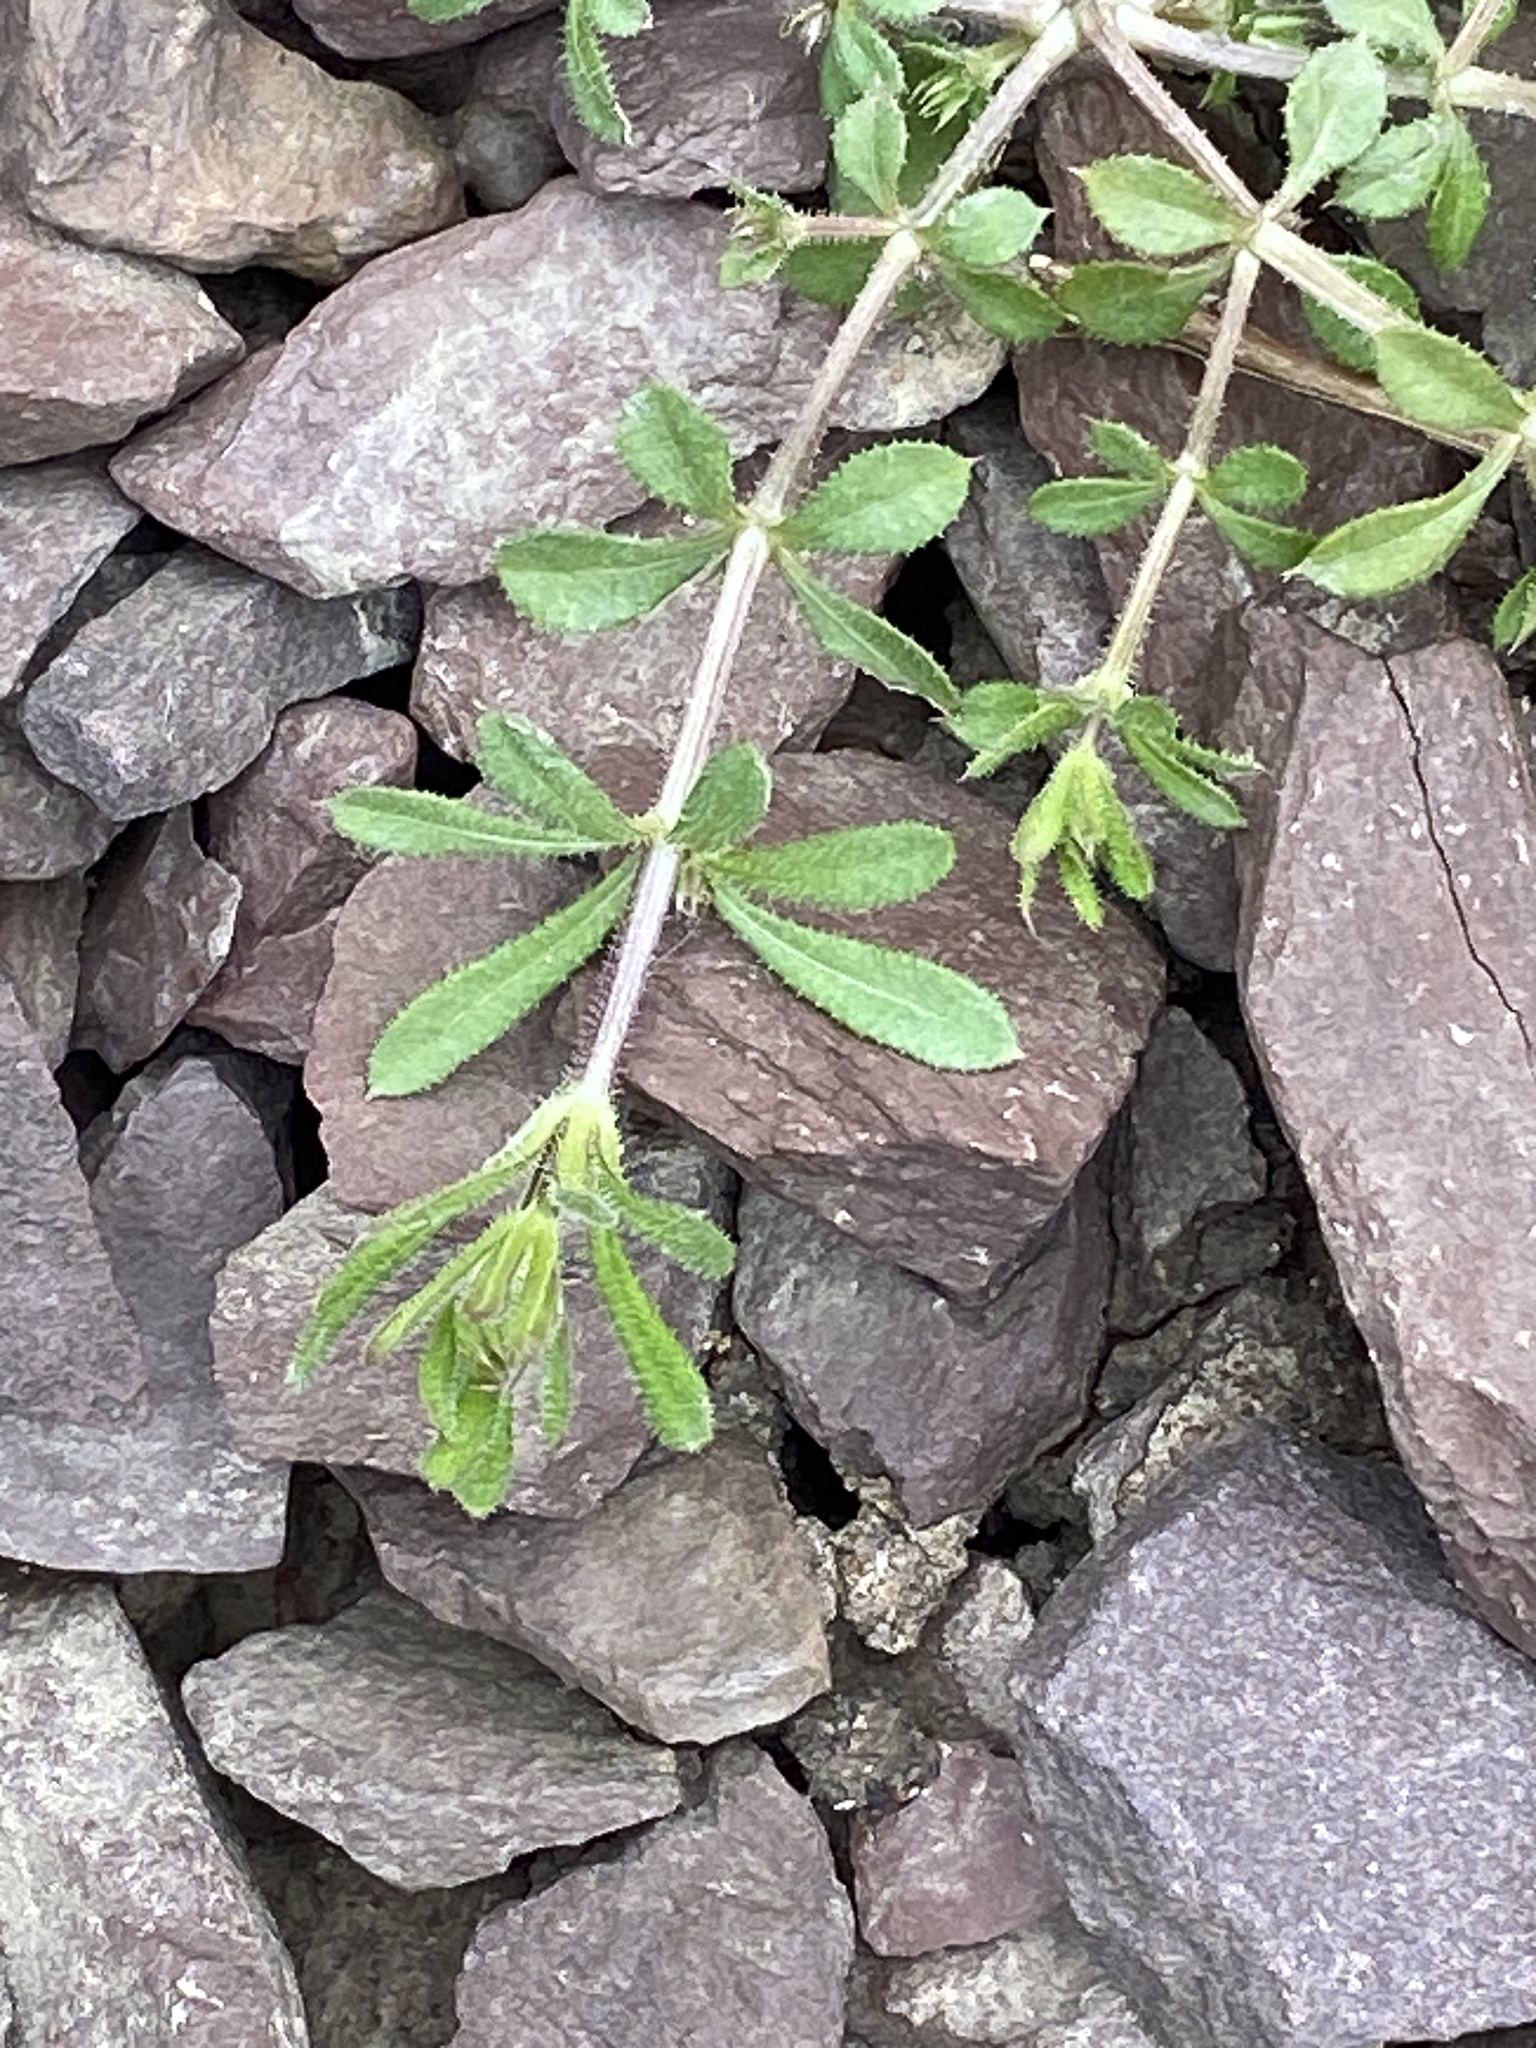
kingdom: Plantae
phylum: Tracheophyta
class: Magnoliopsida
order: Gentianales
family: Rubiaceae
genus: Galium
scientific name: Galium aparine
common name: Cleavers
